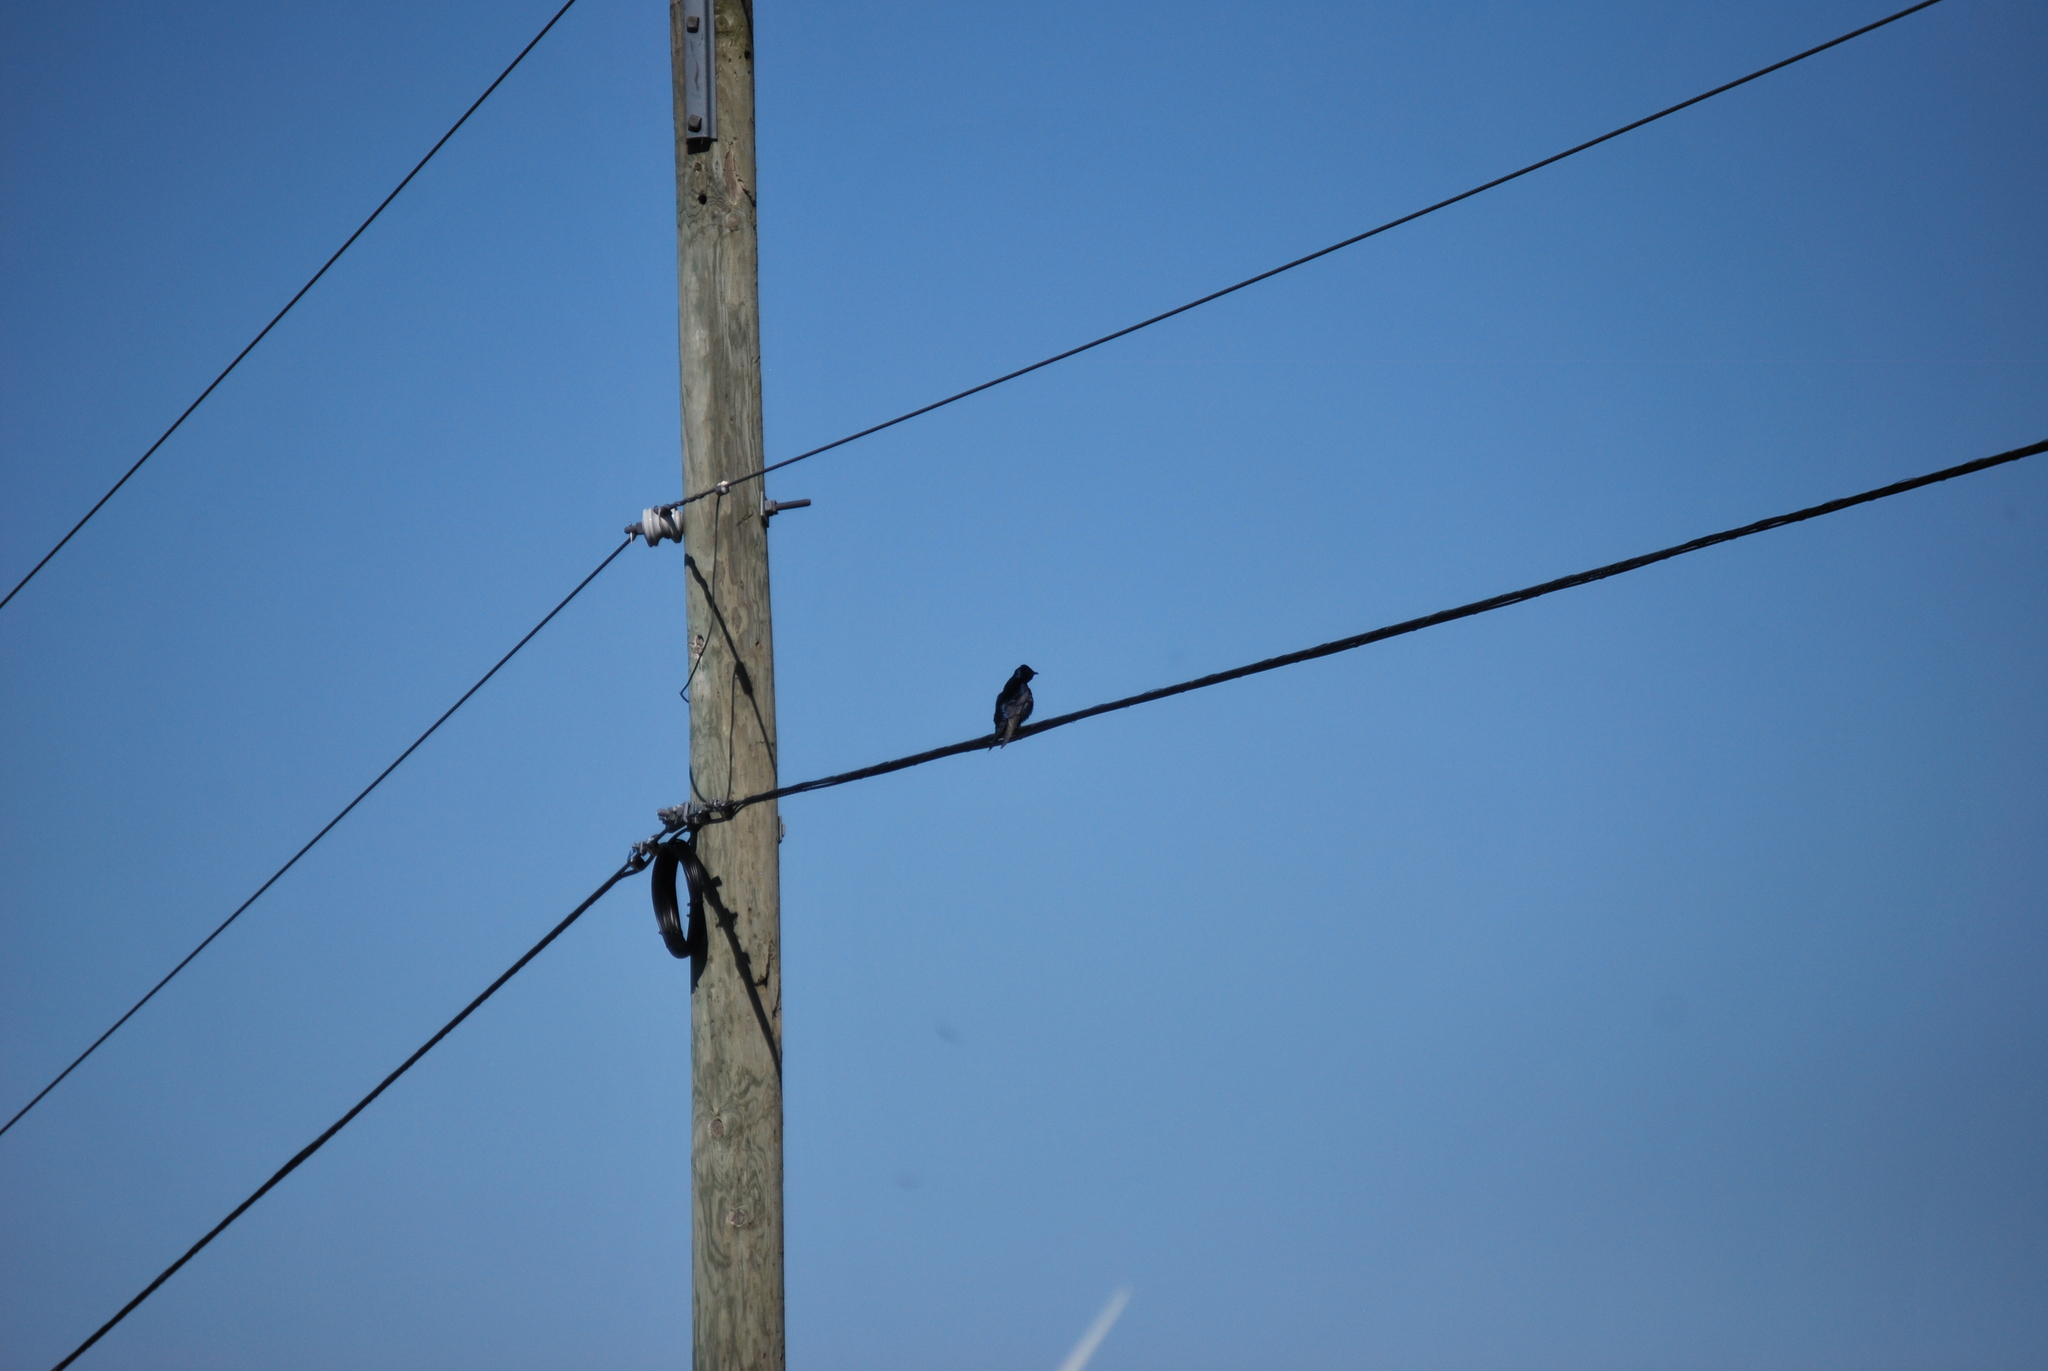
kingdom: Animalia
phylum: Chordata
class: Aves
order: Passeriformes
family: Hirundinidae
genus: Progne
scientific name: Progne subis
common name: Purple martin
